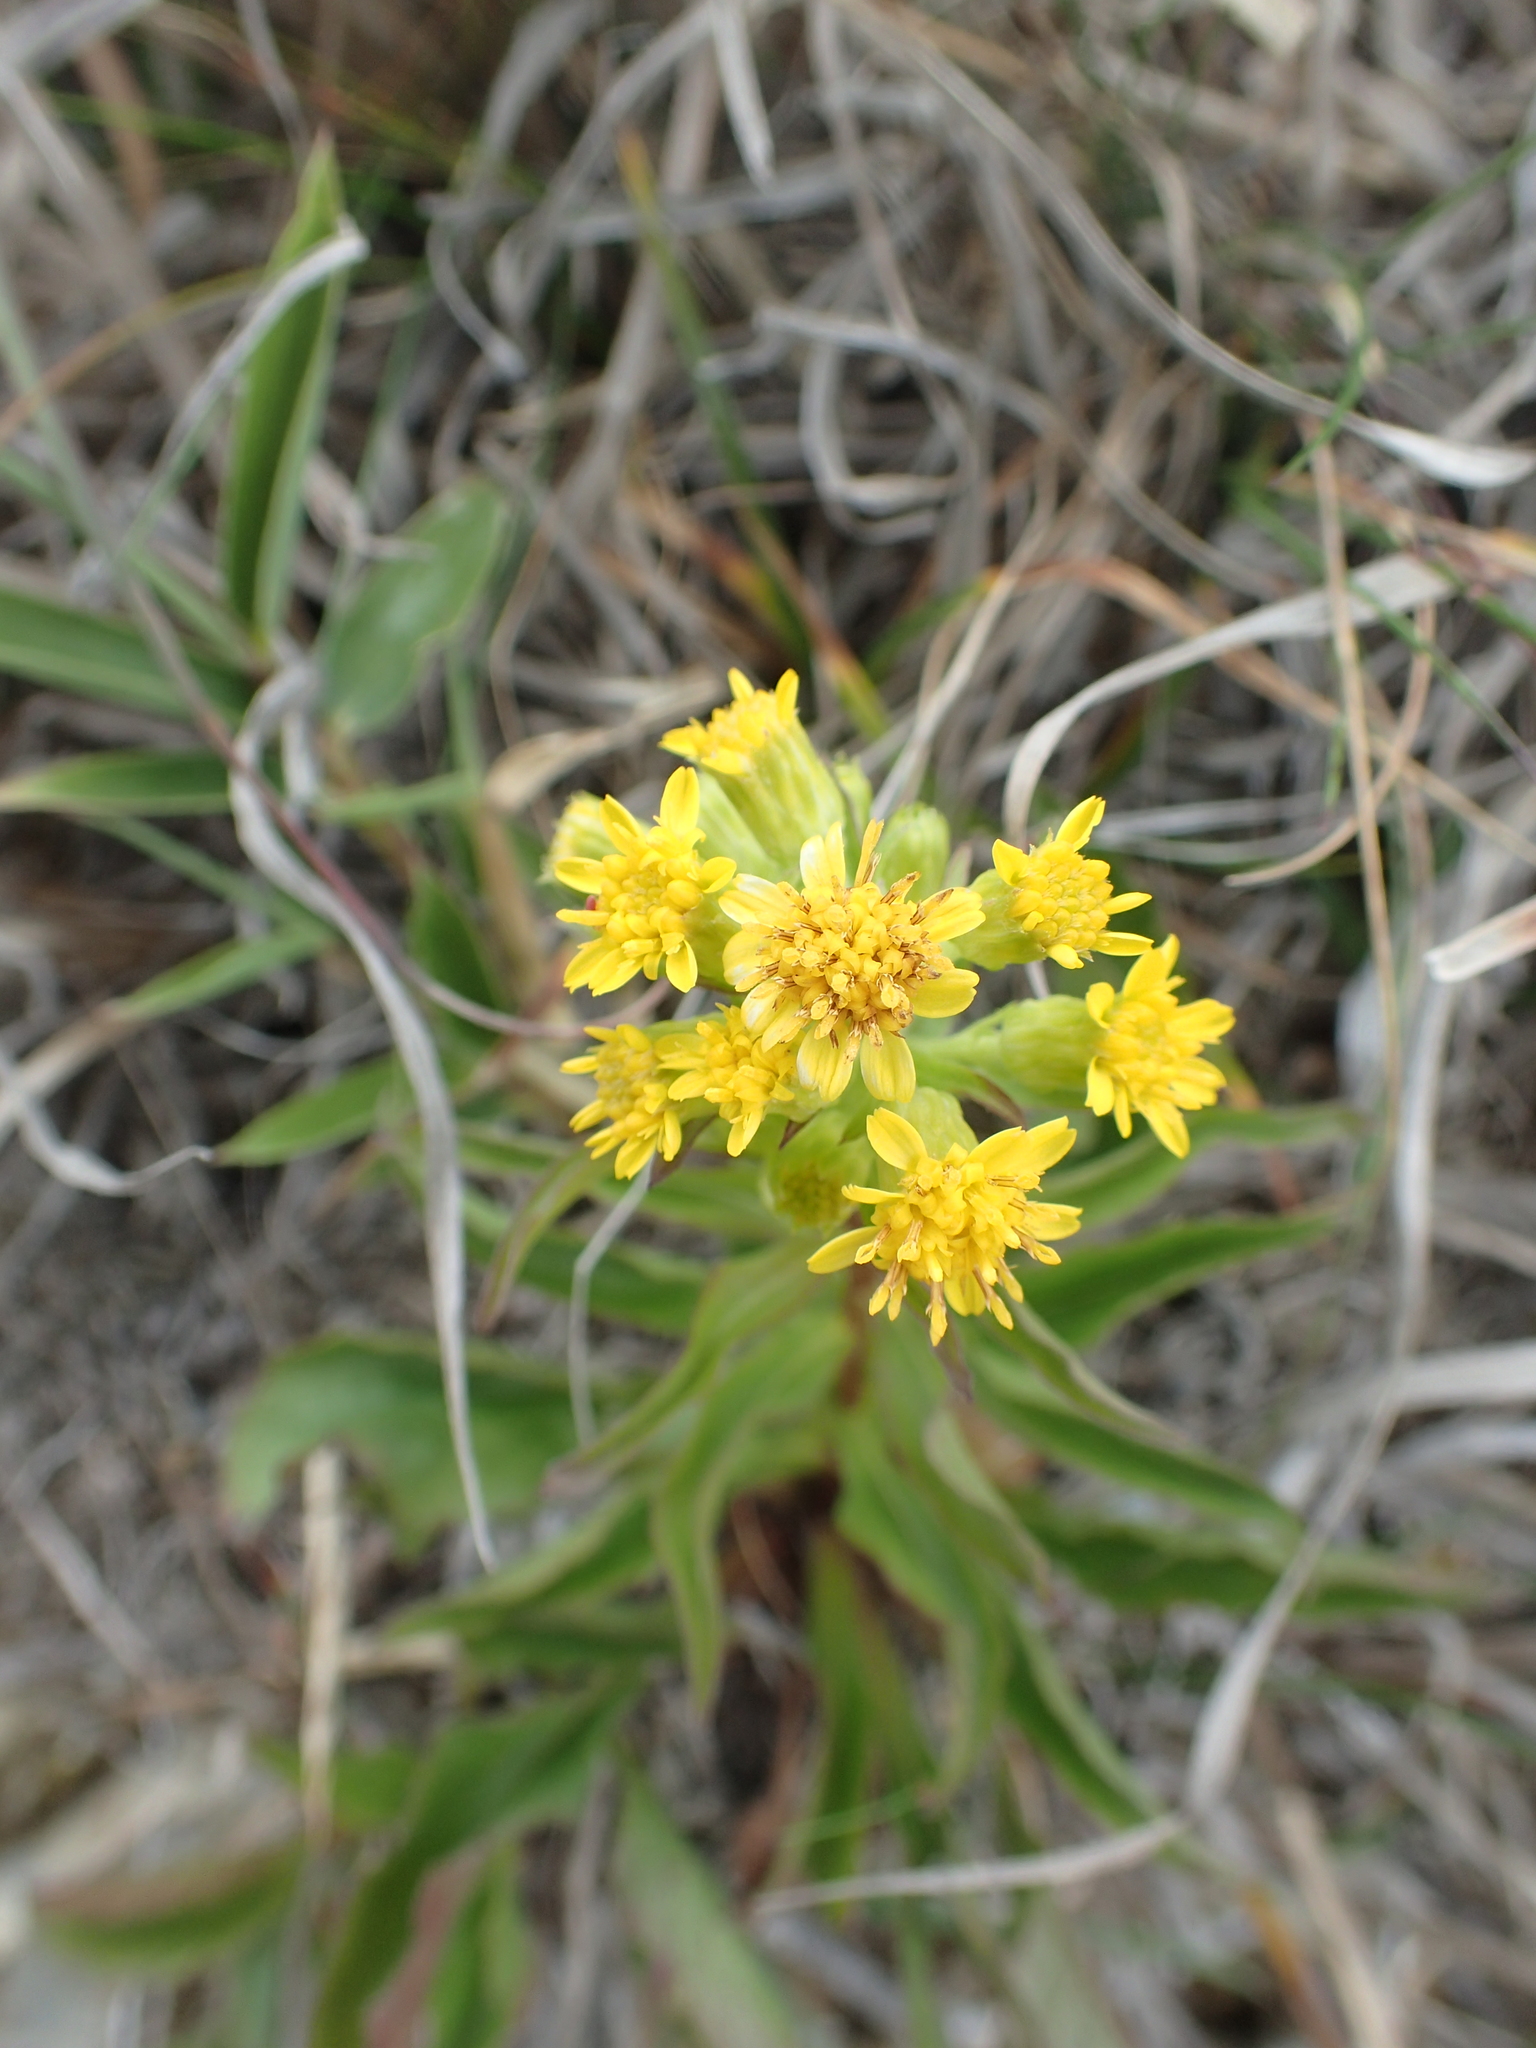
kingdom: Plantae
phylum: Tracheophyta
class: Magnoliopsida
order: Asterales
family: Asteraceae
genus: Solidago
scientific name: Solidago decurrens
